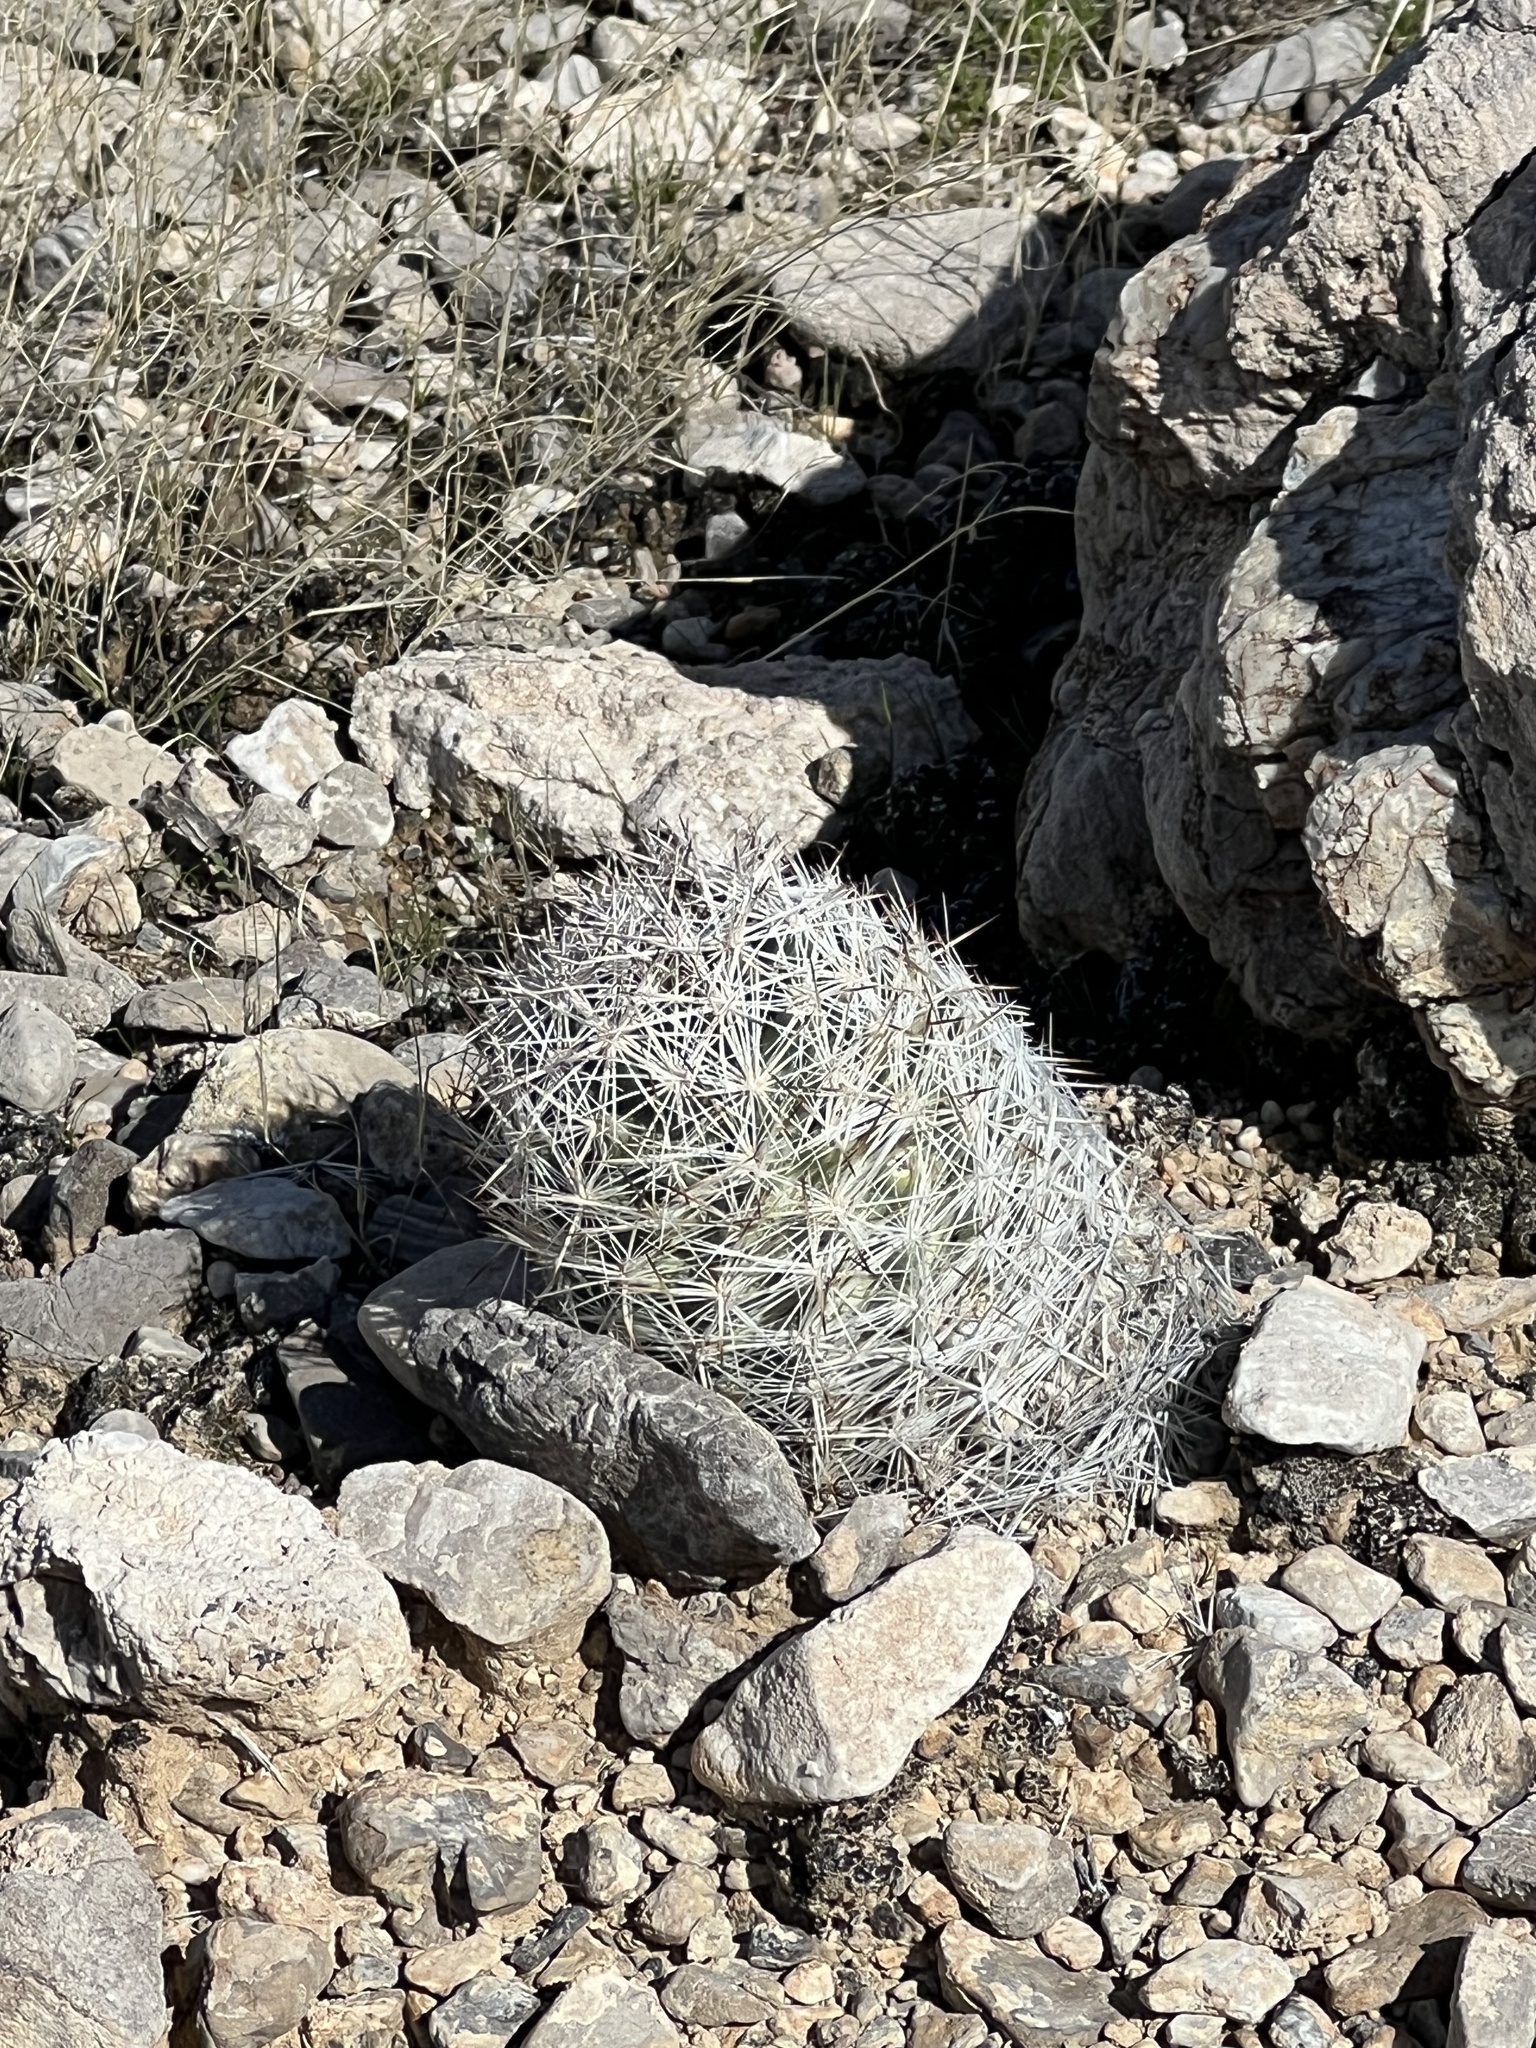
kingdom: Plantae
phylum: Tracheophyta
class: Magnoliopsida
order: Caryophyllales
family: Cactaceae
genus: Pelecyphora
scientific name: Pelecyphora dasyacantha
